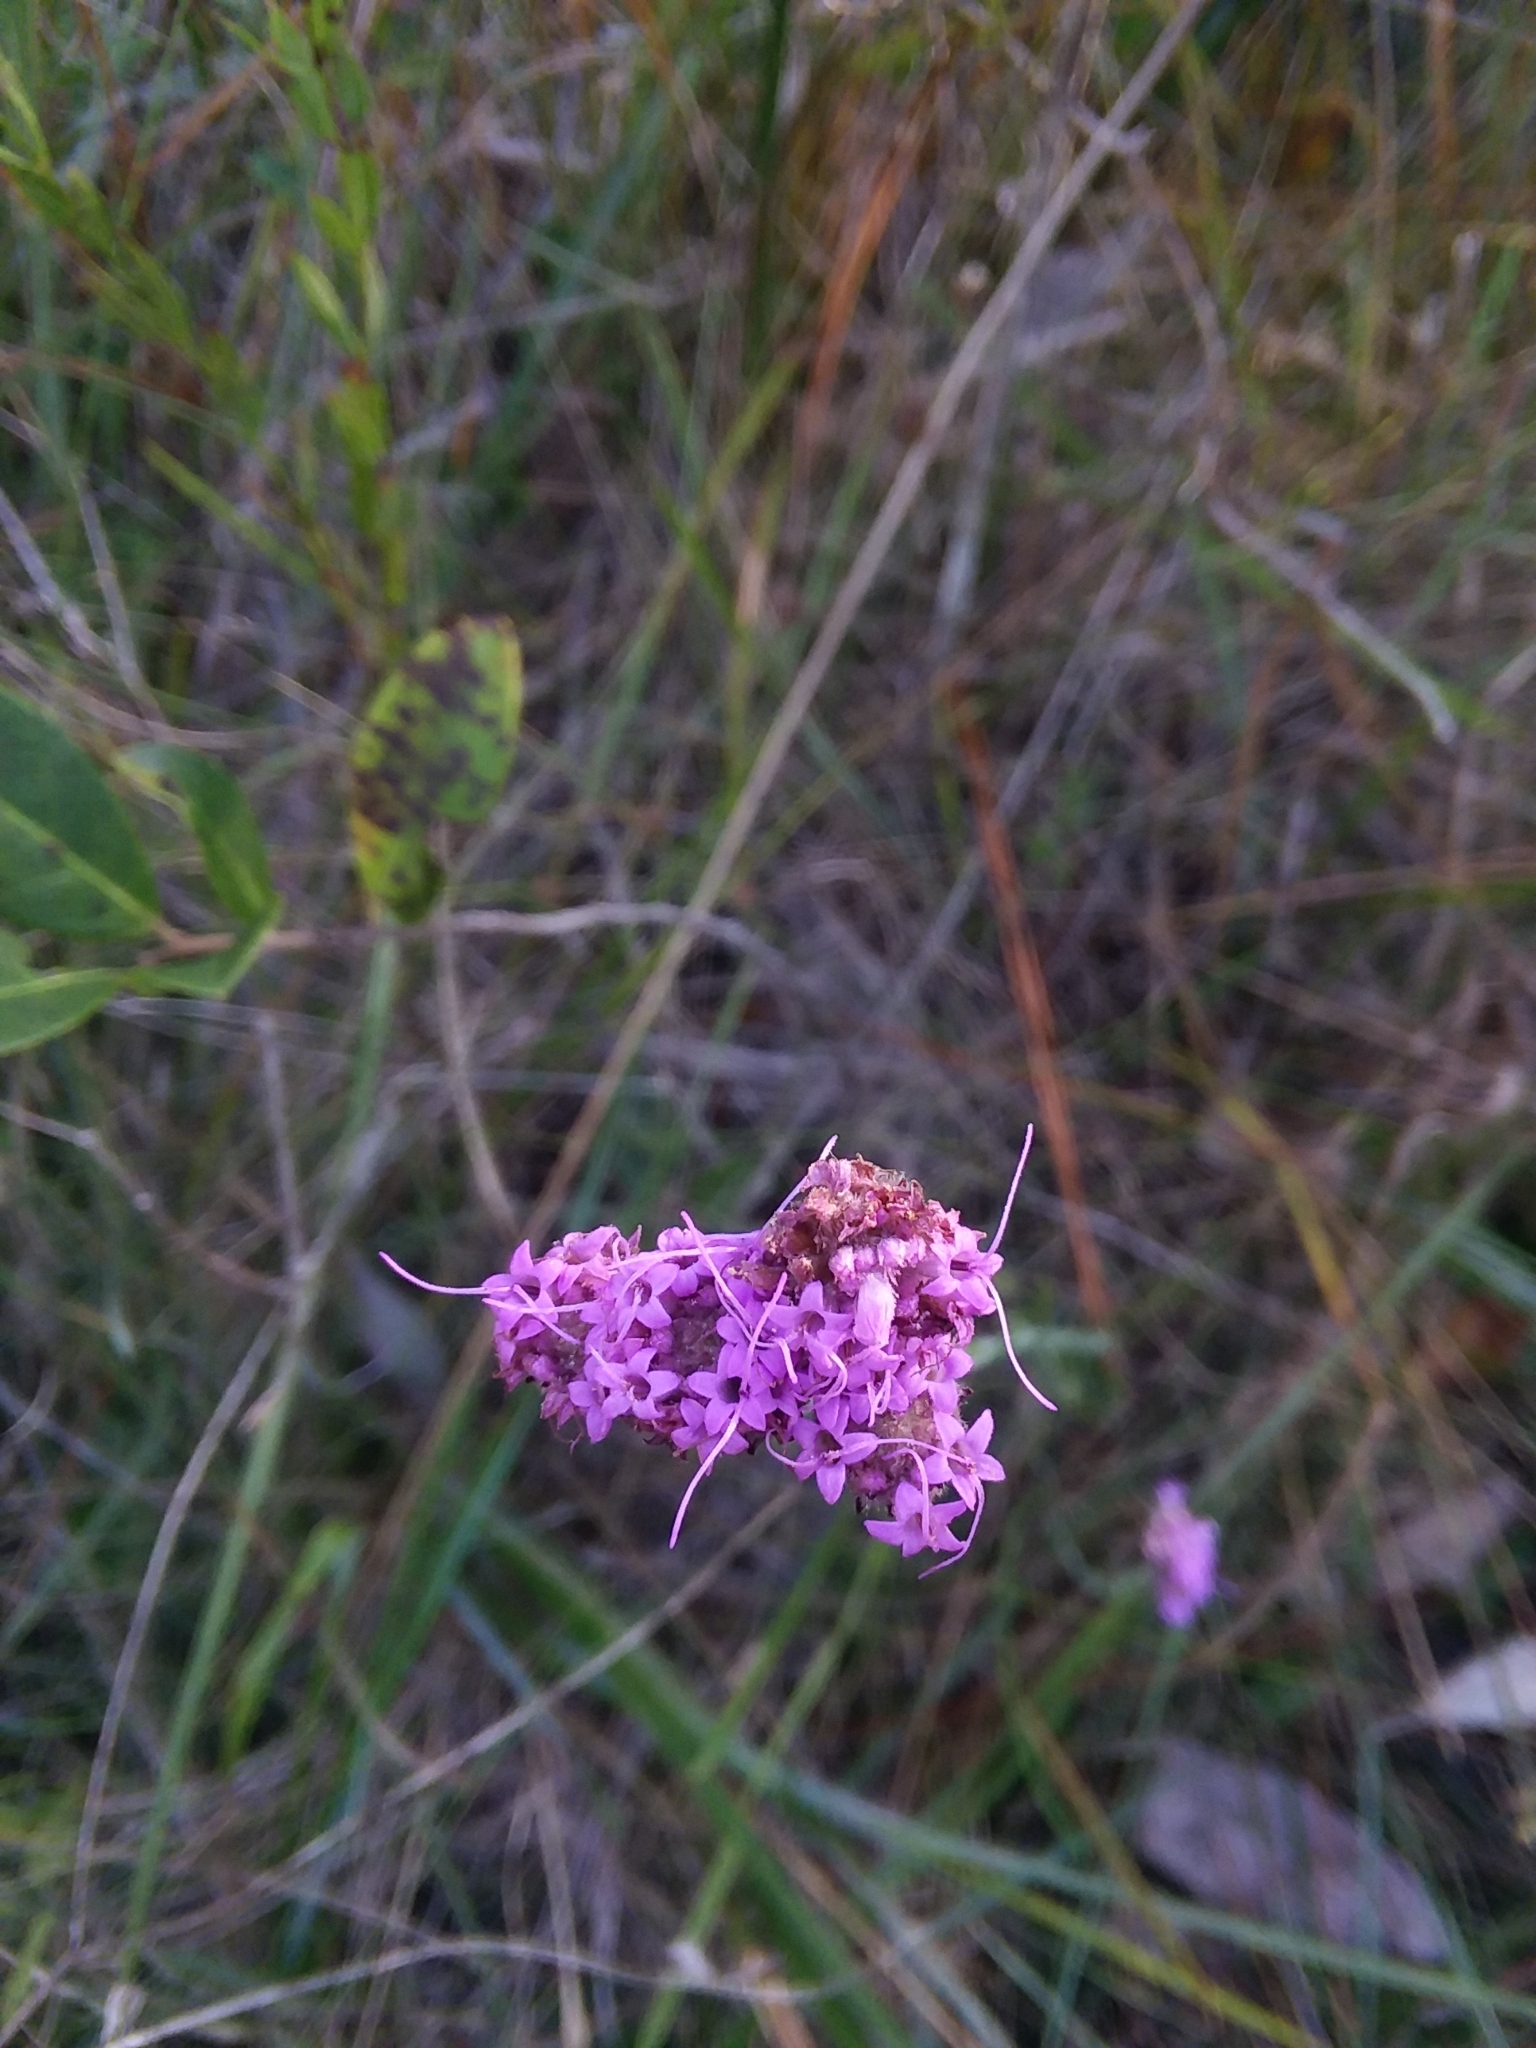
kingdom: Plantae
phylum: Tracheophyta
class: Magnoliopsida
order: Asterales
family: Asteraceae
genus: Carphephorus
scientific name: Carphephorus pseudoliatris
